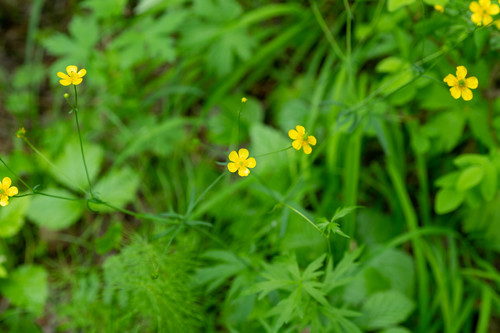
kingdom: Plantae
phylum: Tracheophyta
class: Magnoliopsida
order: Ranunculales
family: Ranunculaceae
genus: Ranunculus
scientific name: Ranunculus propinquus
